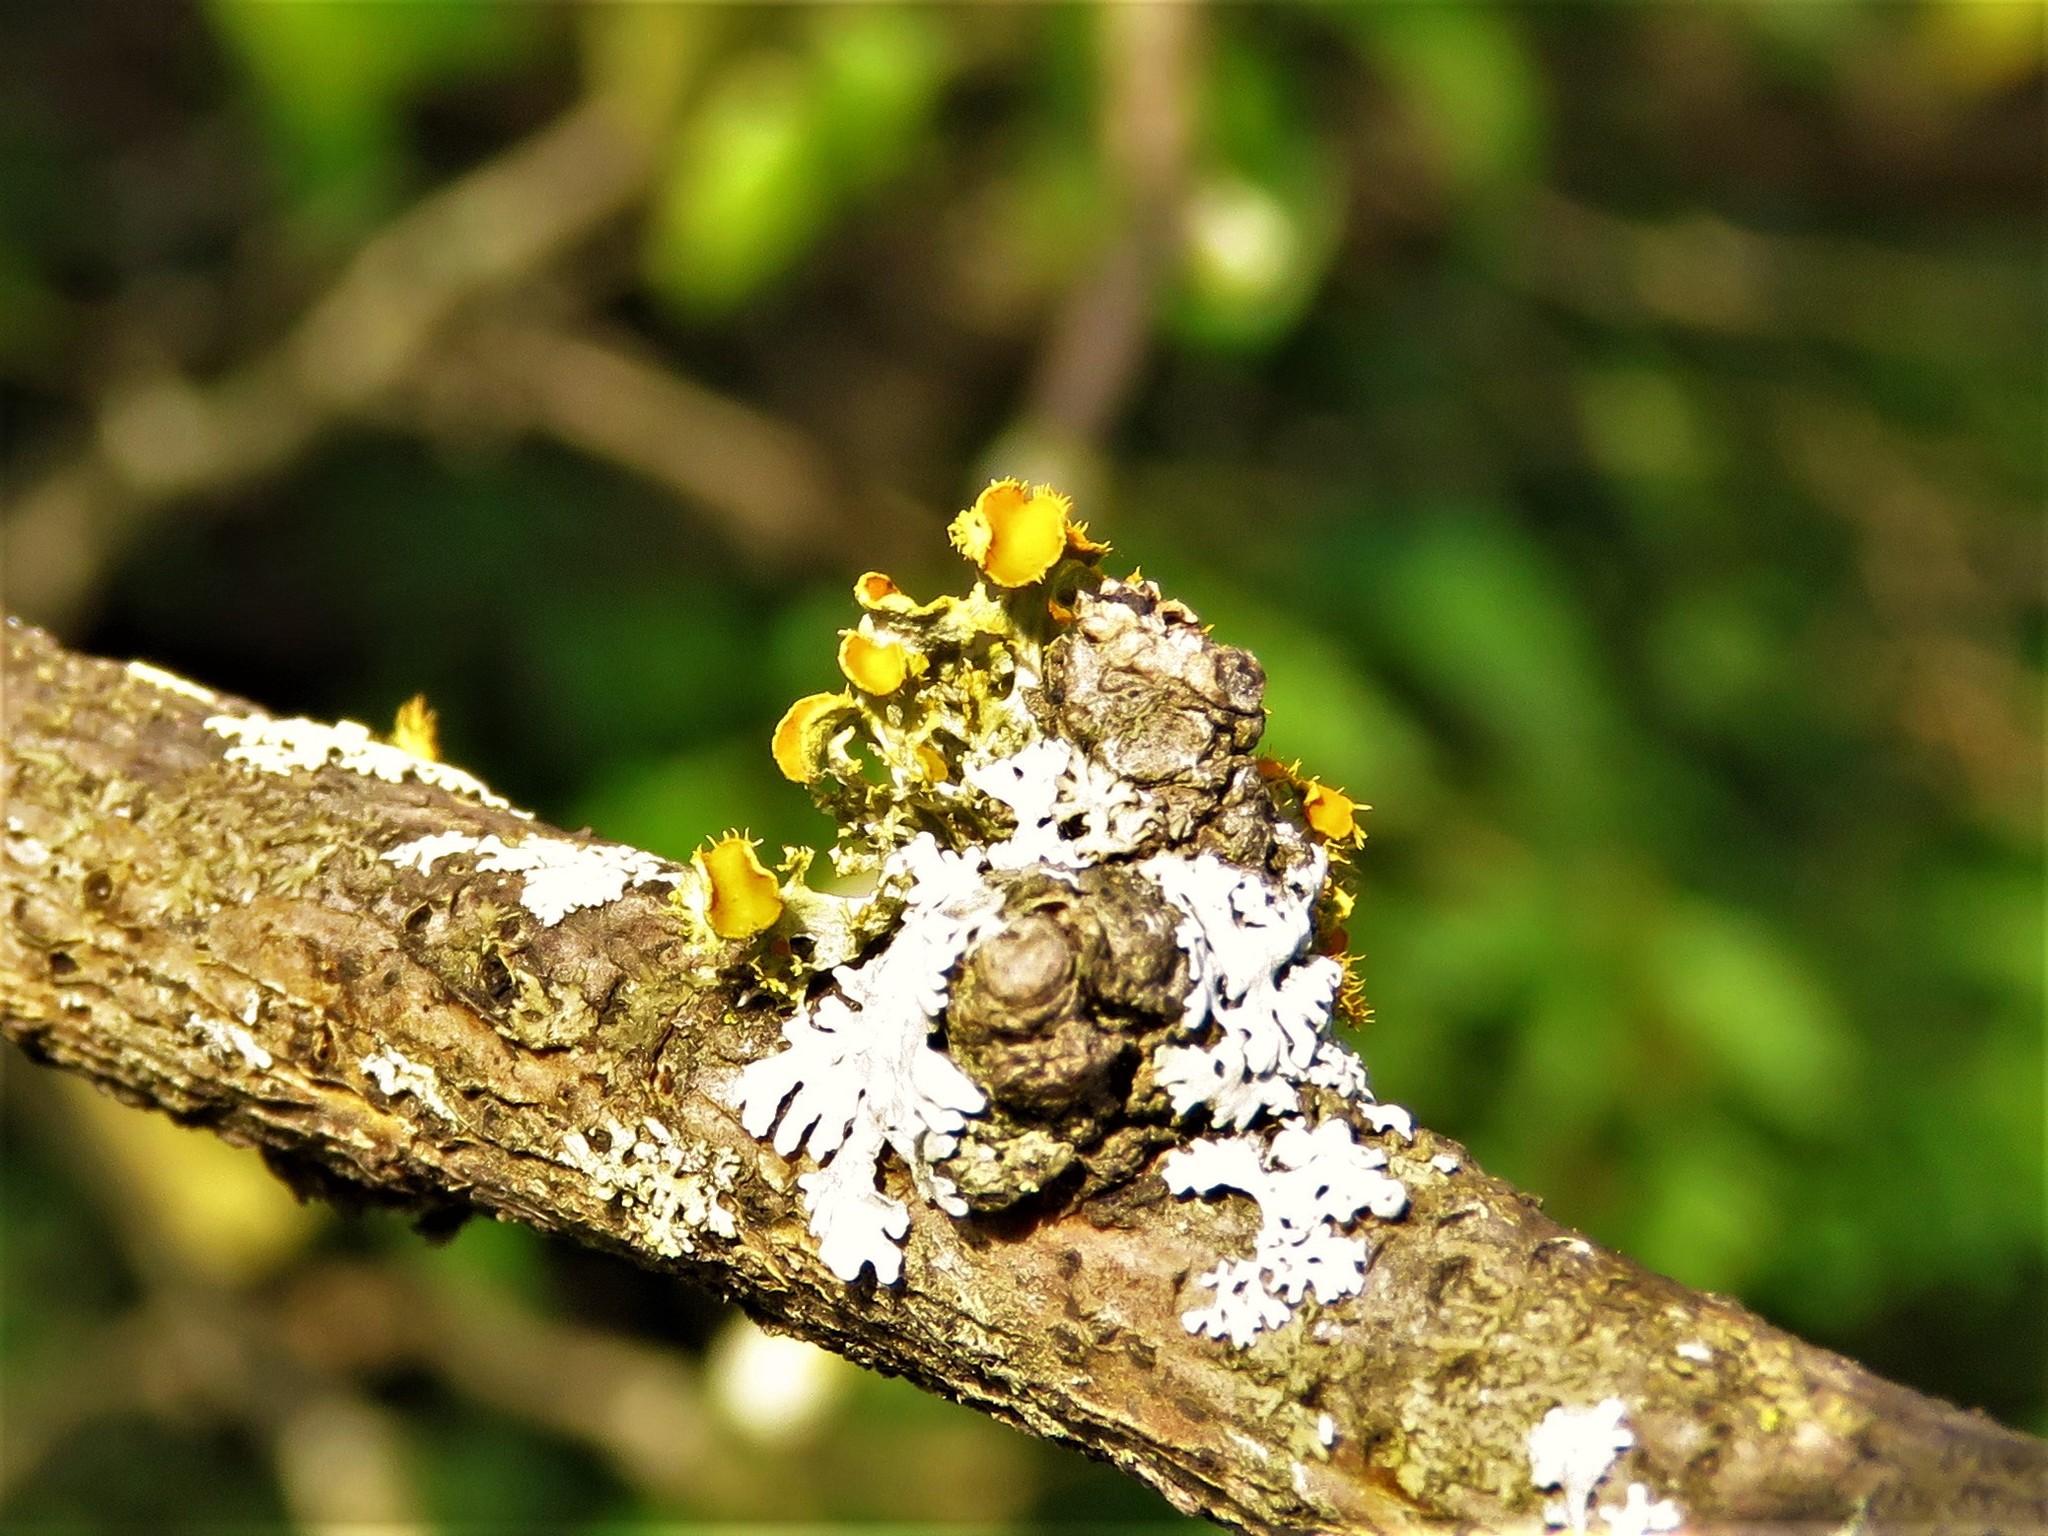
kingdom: Fungi
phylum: Ascomycota
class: Lecanoromycetes
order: Teloschistales
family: Teloschistaceae
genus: Niorma
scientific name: Niorma chrysophthalma
